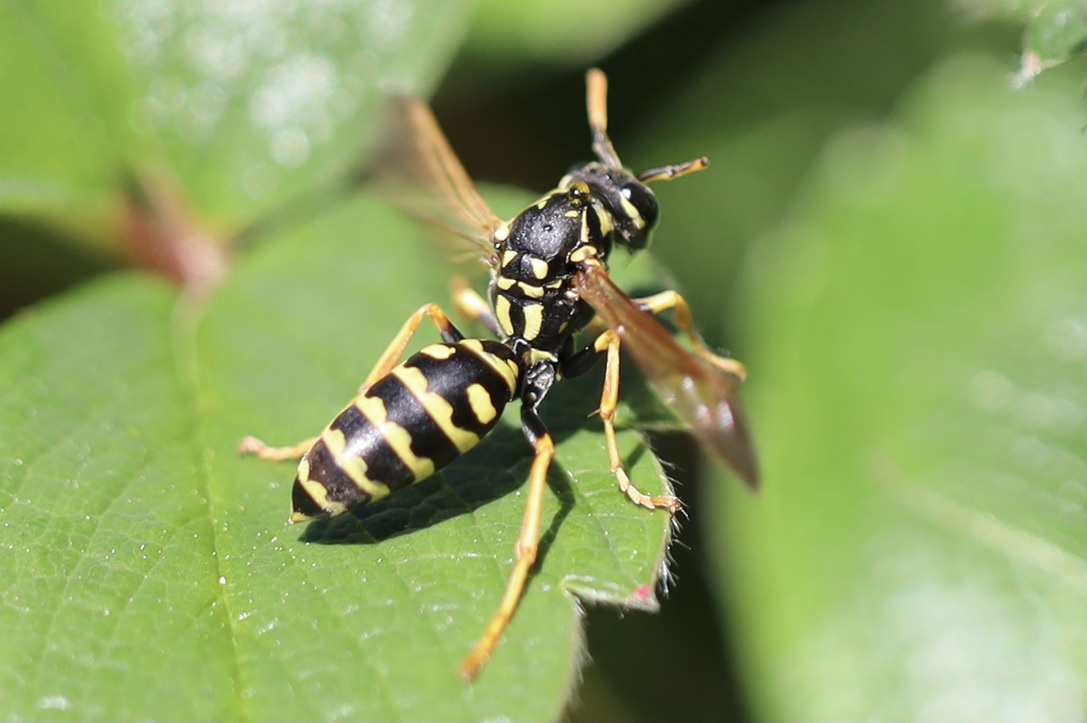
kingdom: Animalia
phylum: Arthropoda
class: Insecta
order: Hymenoptera
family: Eumenidae
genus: Polistes
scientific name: Polistes dominula
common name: Paper wasp
